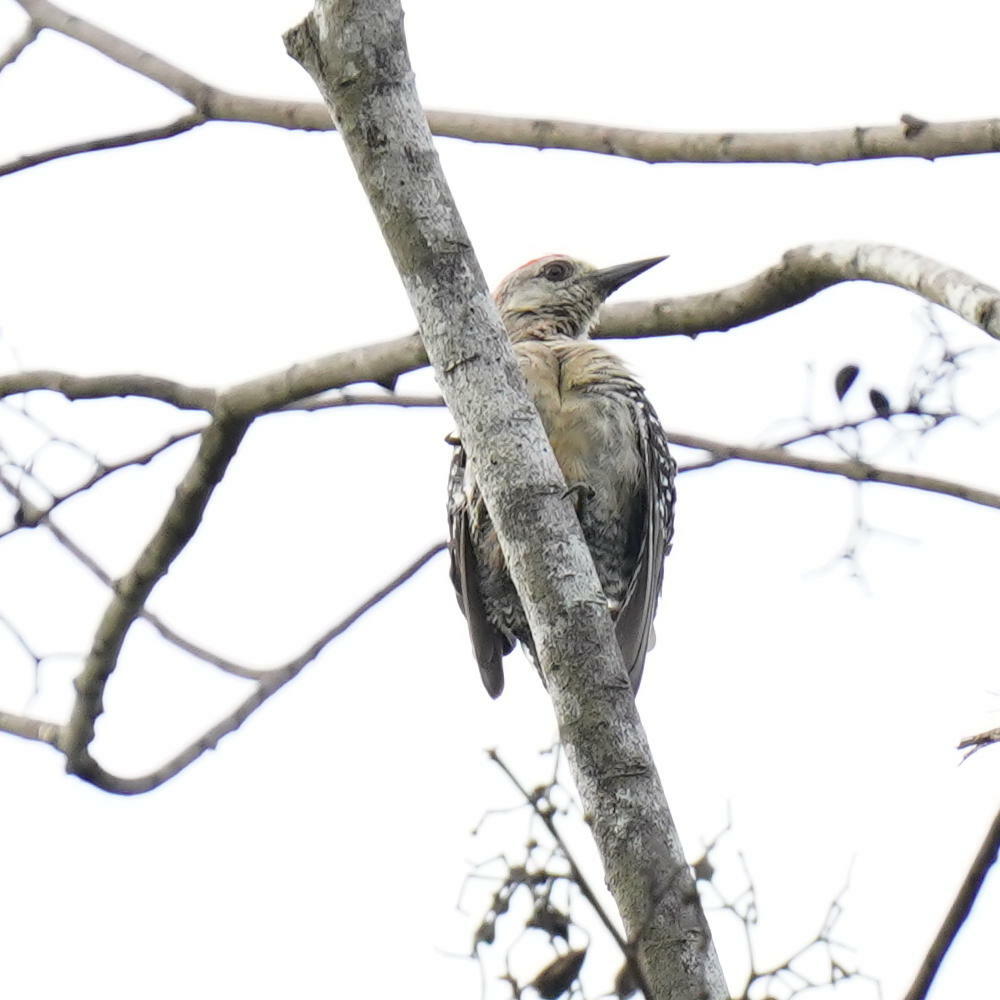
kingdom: Animalia
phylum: Chordata
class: Aves
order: Piciformes
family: Picidae
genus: Melanerpes
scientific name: Melanerpes rubricapillus
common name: Red-crowned woodpecker
